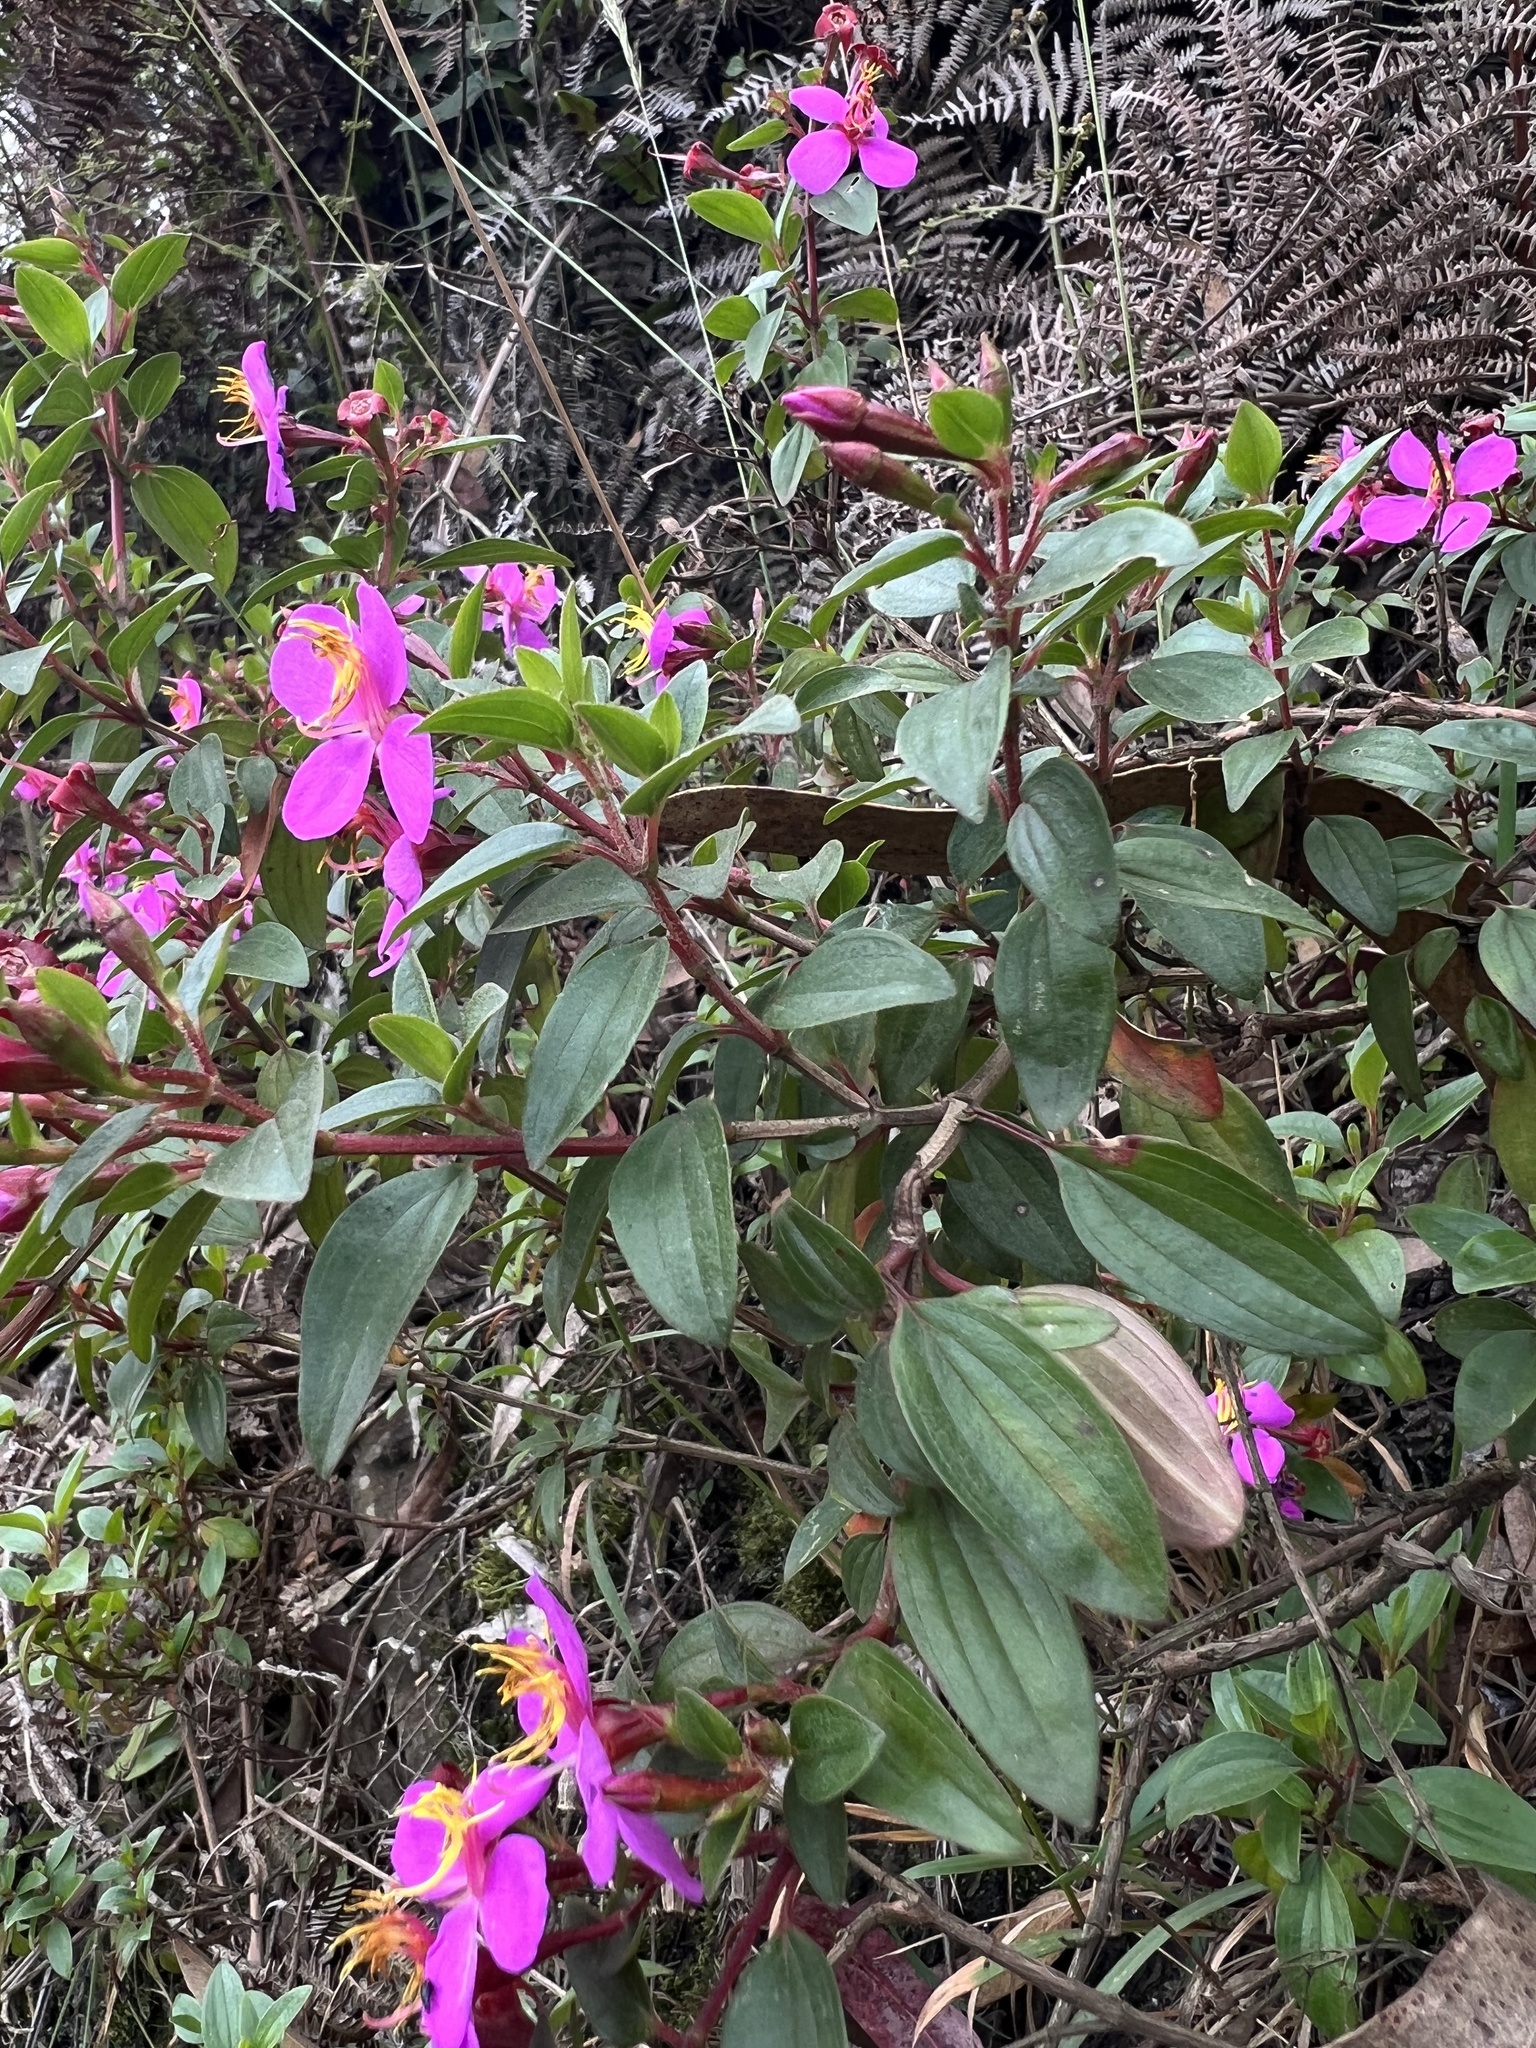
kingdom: Plantae
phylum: Tracheophyta
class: Magnoliopsida
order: Myrtales
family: Melastomataceae
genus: Monochaetum
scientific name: Monochaetum myrtoideum
